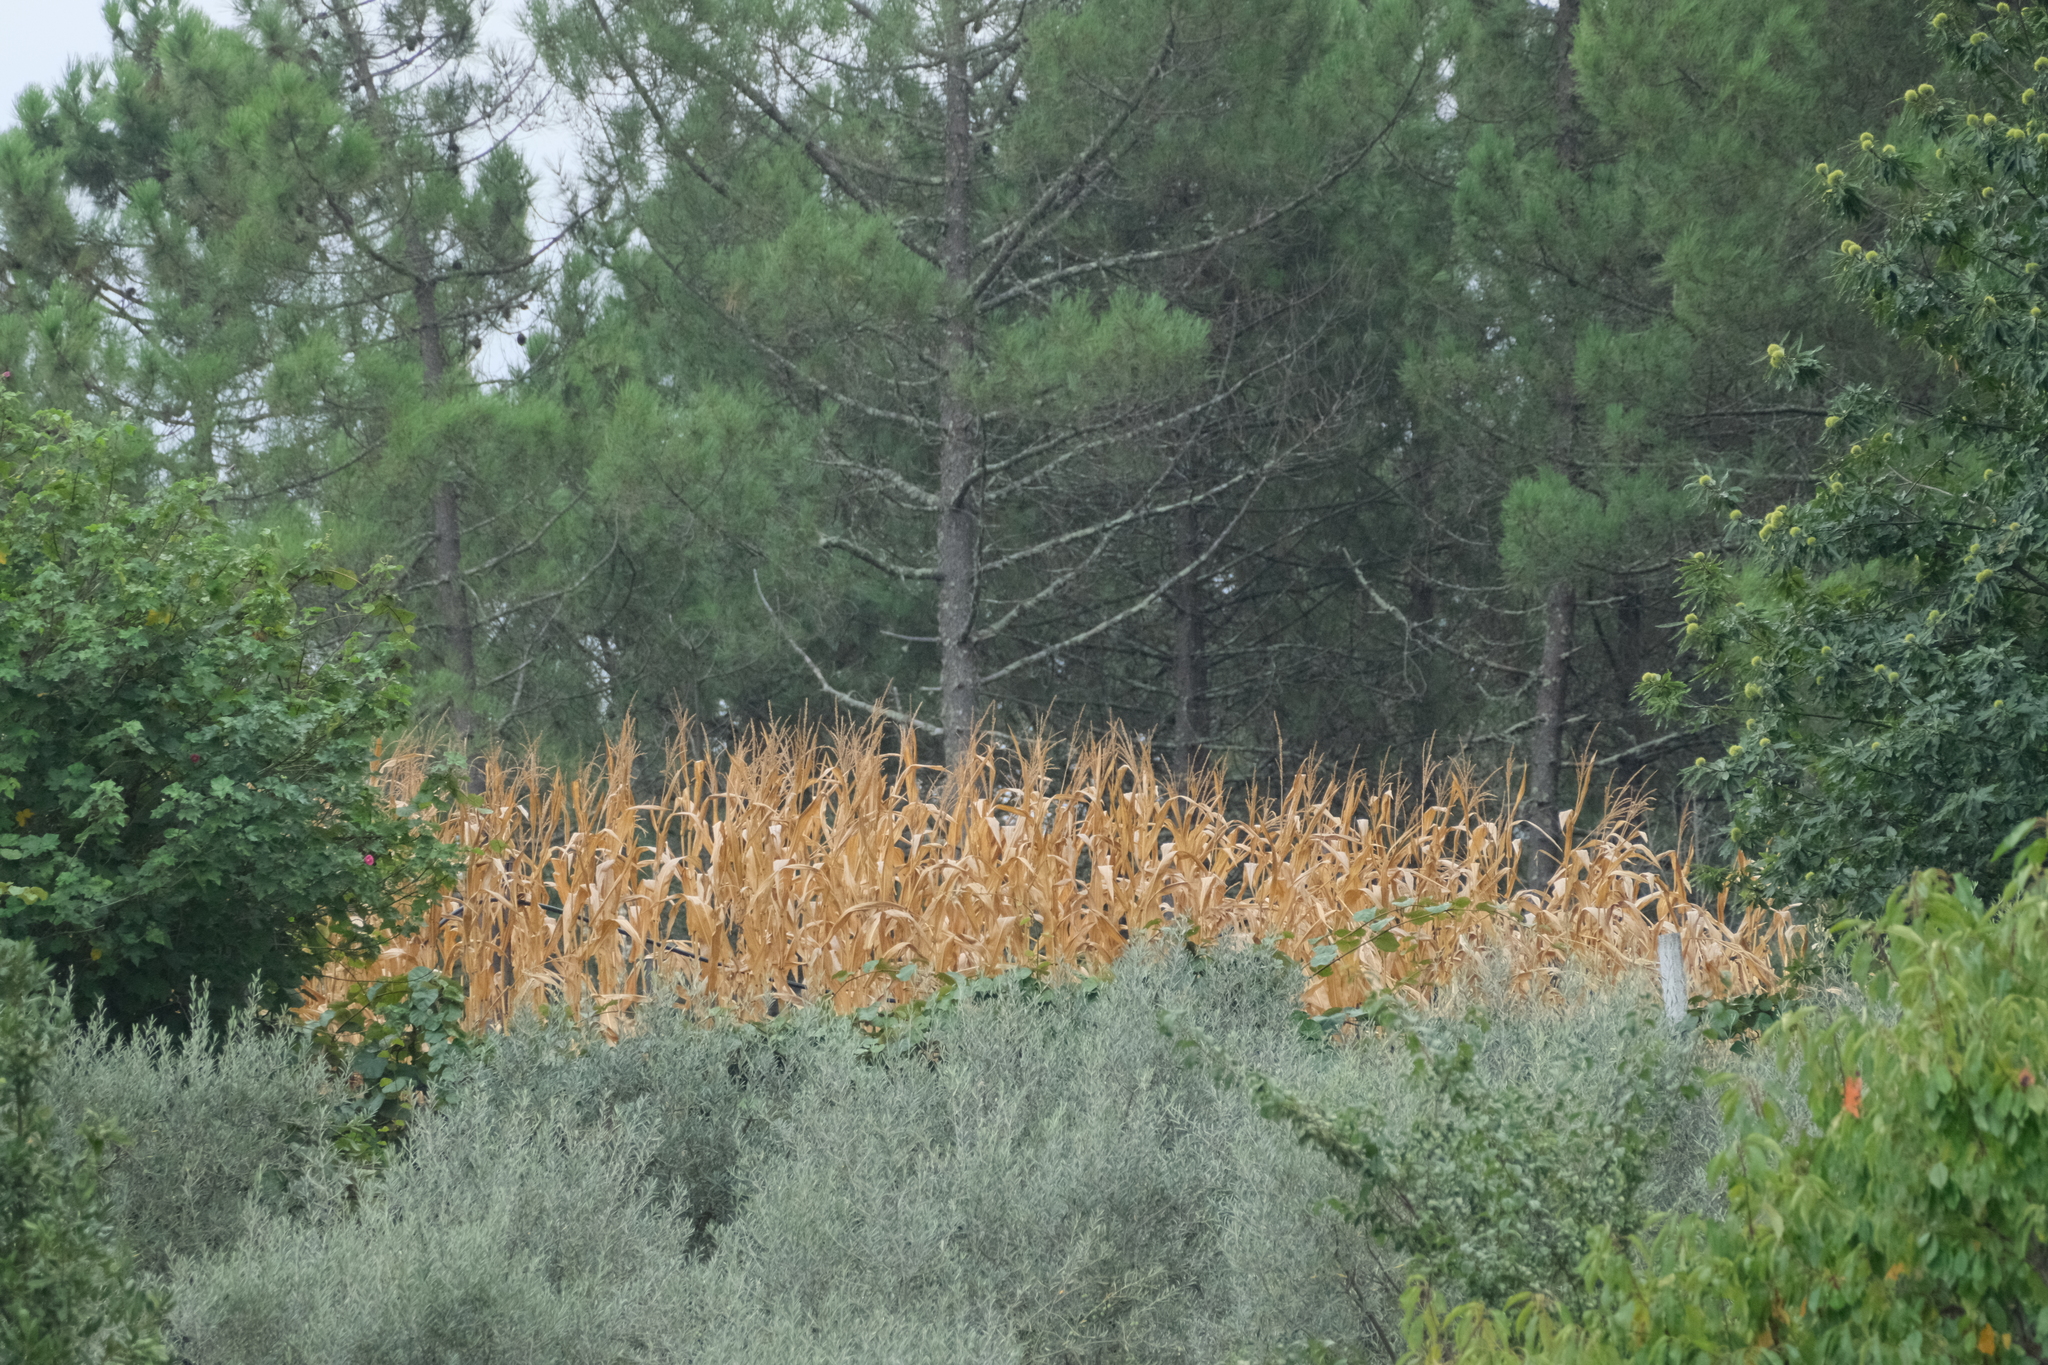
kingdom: Plantae
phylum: Tracheophyta
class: Liliopsida
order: Poales
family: Poaceae
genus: Zea
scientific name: Zea mays
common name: Maize
